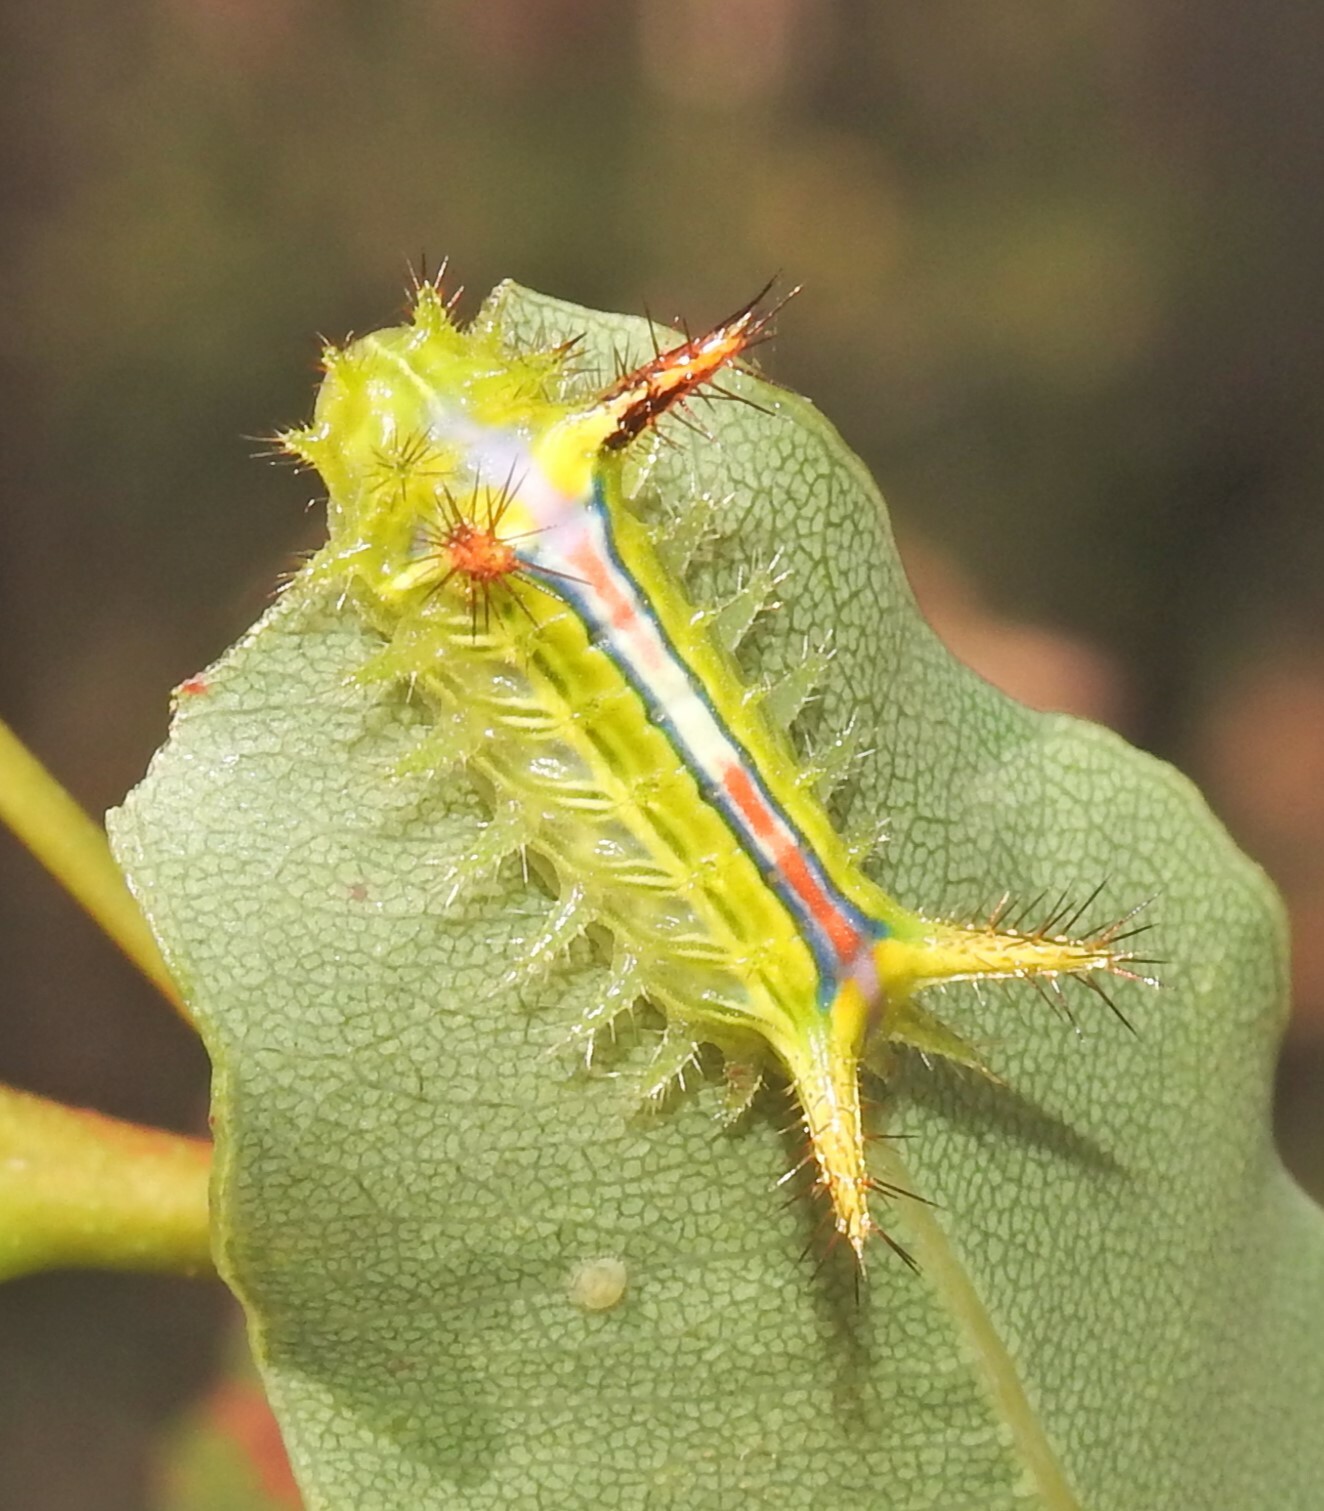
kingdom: Animalia
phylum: Arthropoda
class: Insecta
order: Lepidoptera
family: Limacodidae
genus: Anaxidia
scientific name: Anaxidia lozogramma
